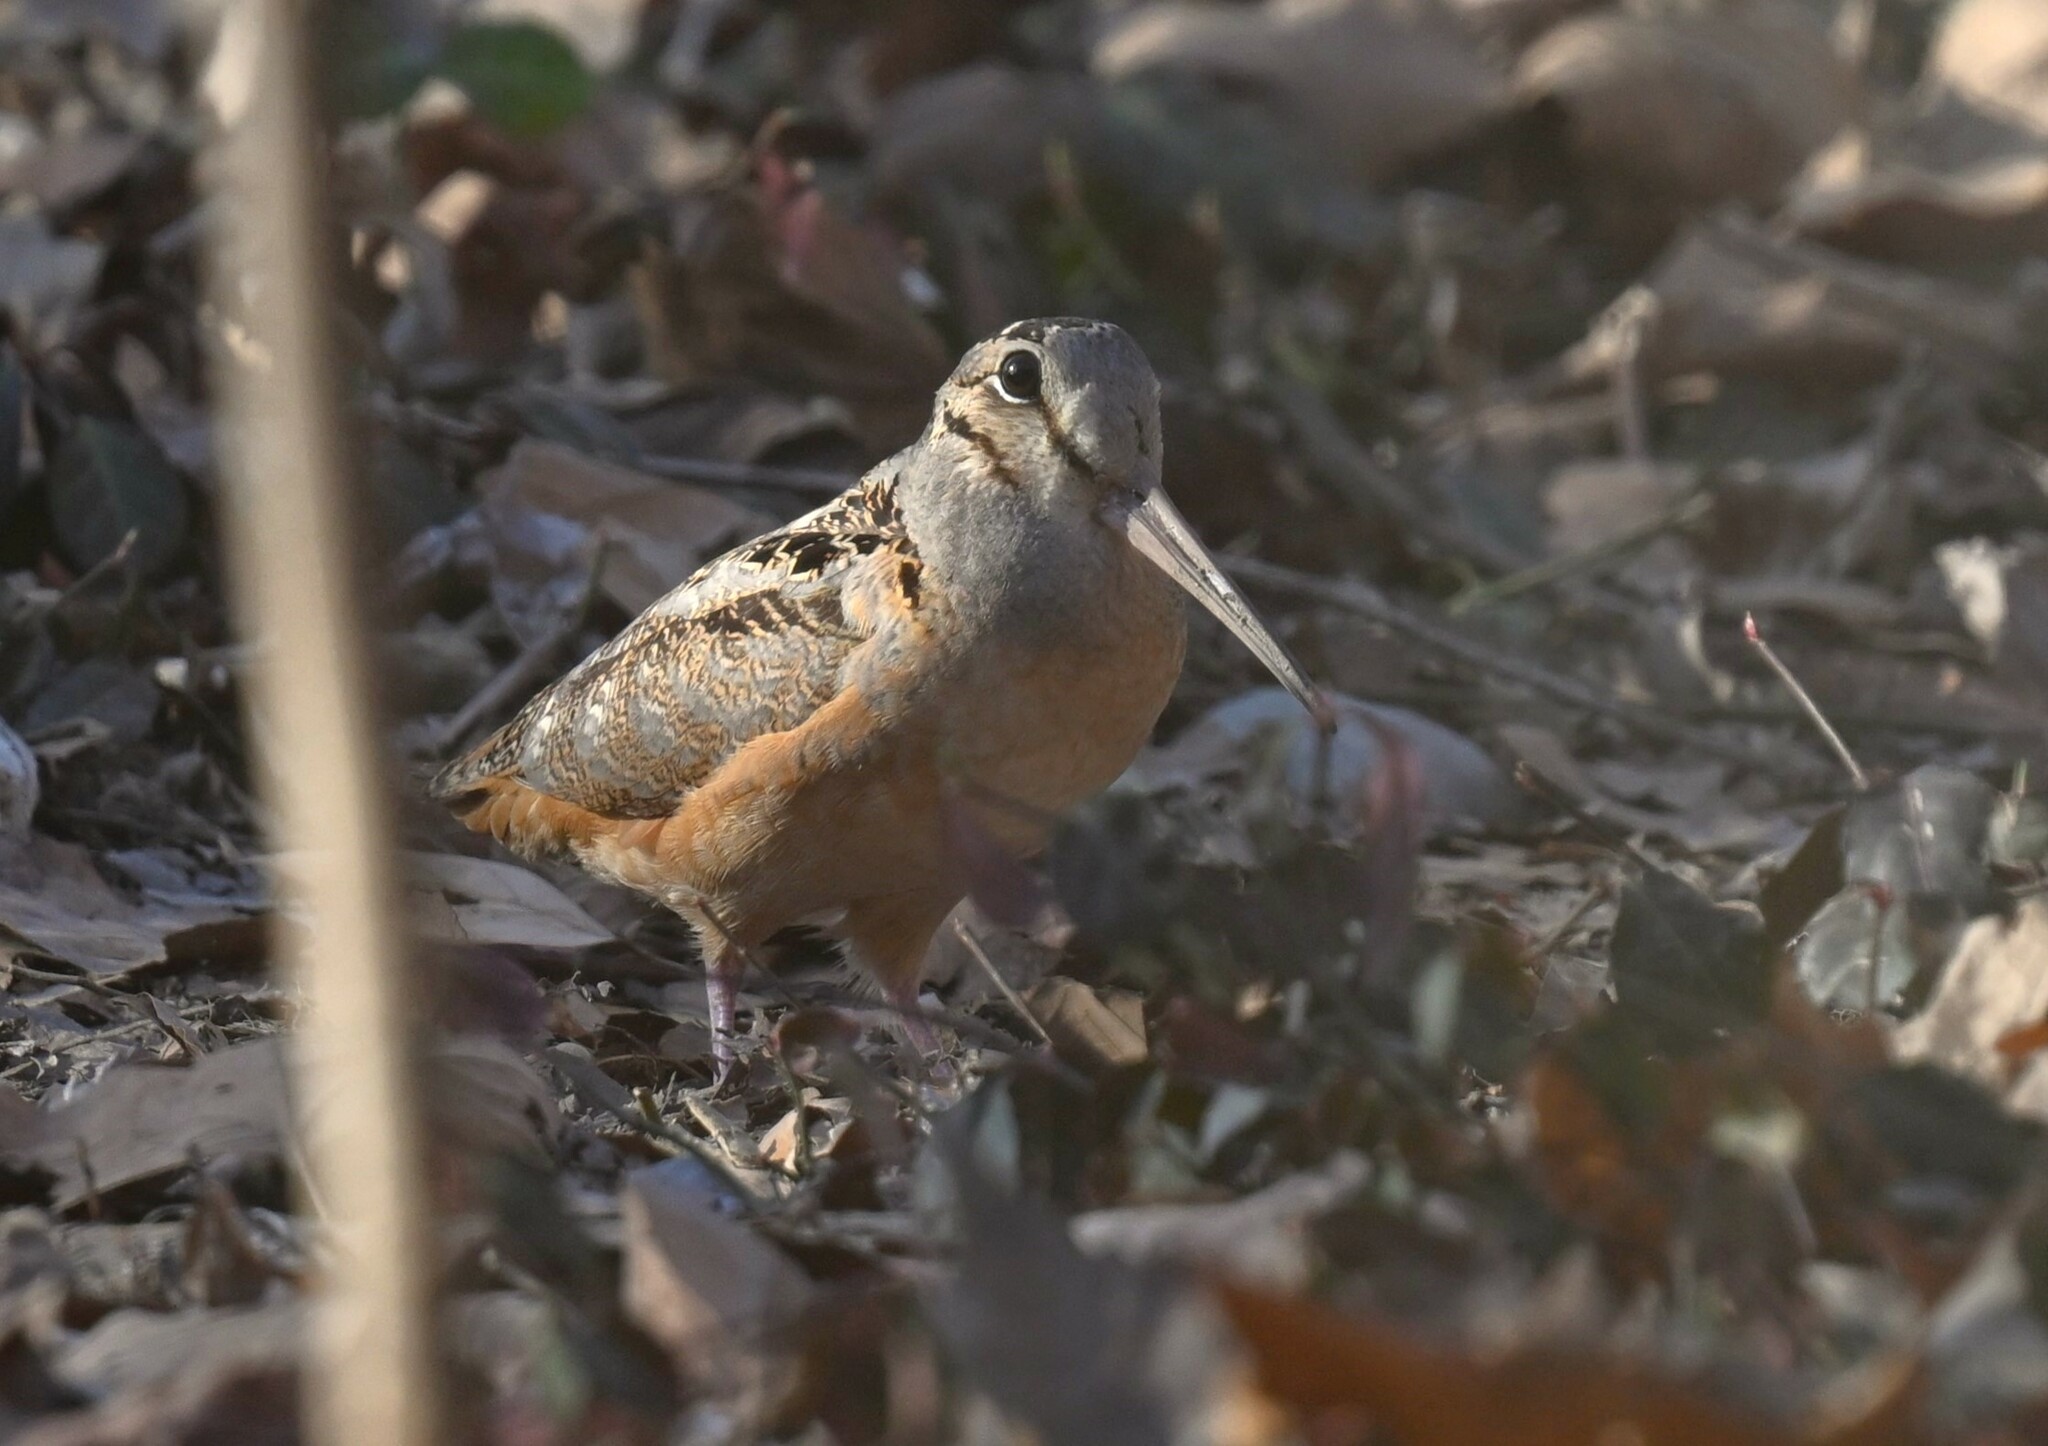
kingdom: Animalia
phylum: Chordata
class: Aves
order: Charadriiformes
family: Scolopacidae
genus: Scolopax
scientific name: Scolopax minor
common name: American woodcock
